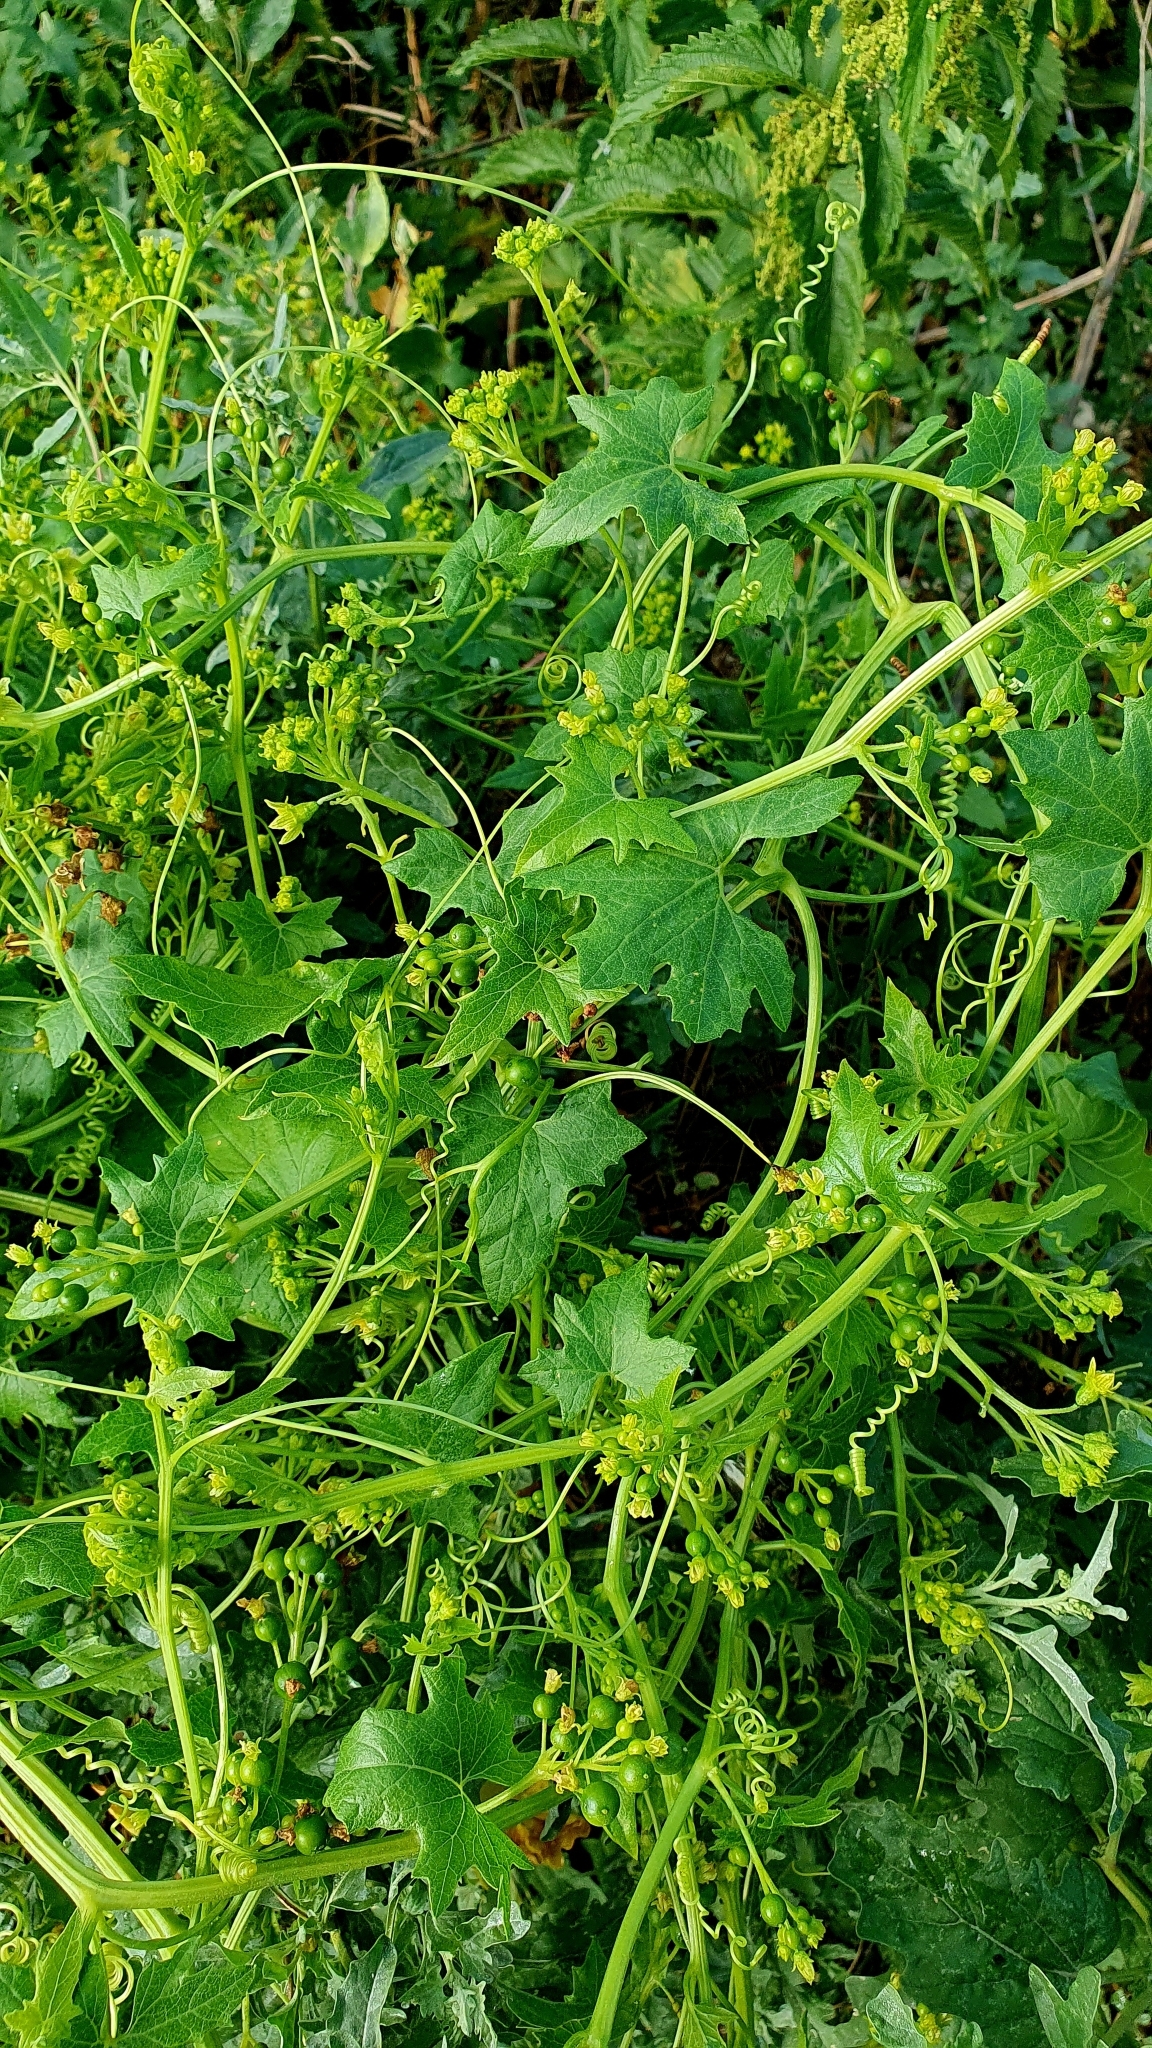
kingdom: Plantae
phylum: Tracheophyta
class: Magnoliopsida
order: Cucurbitales
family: Cucurbitaceae
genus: Bryonia
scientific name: Bryonia alba
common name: White bryony
